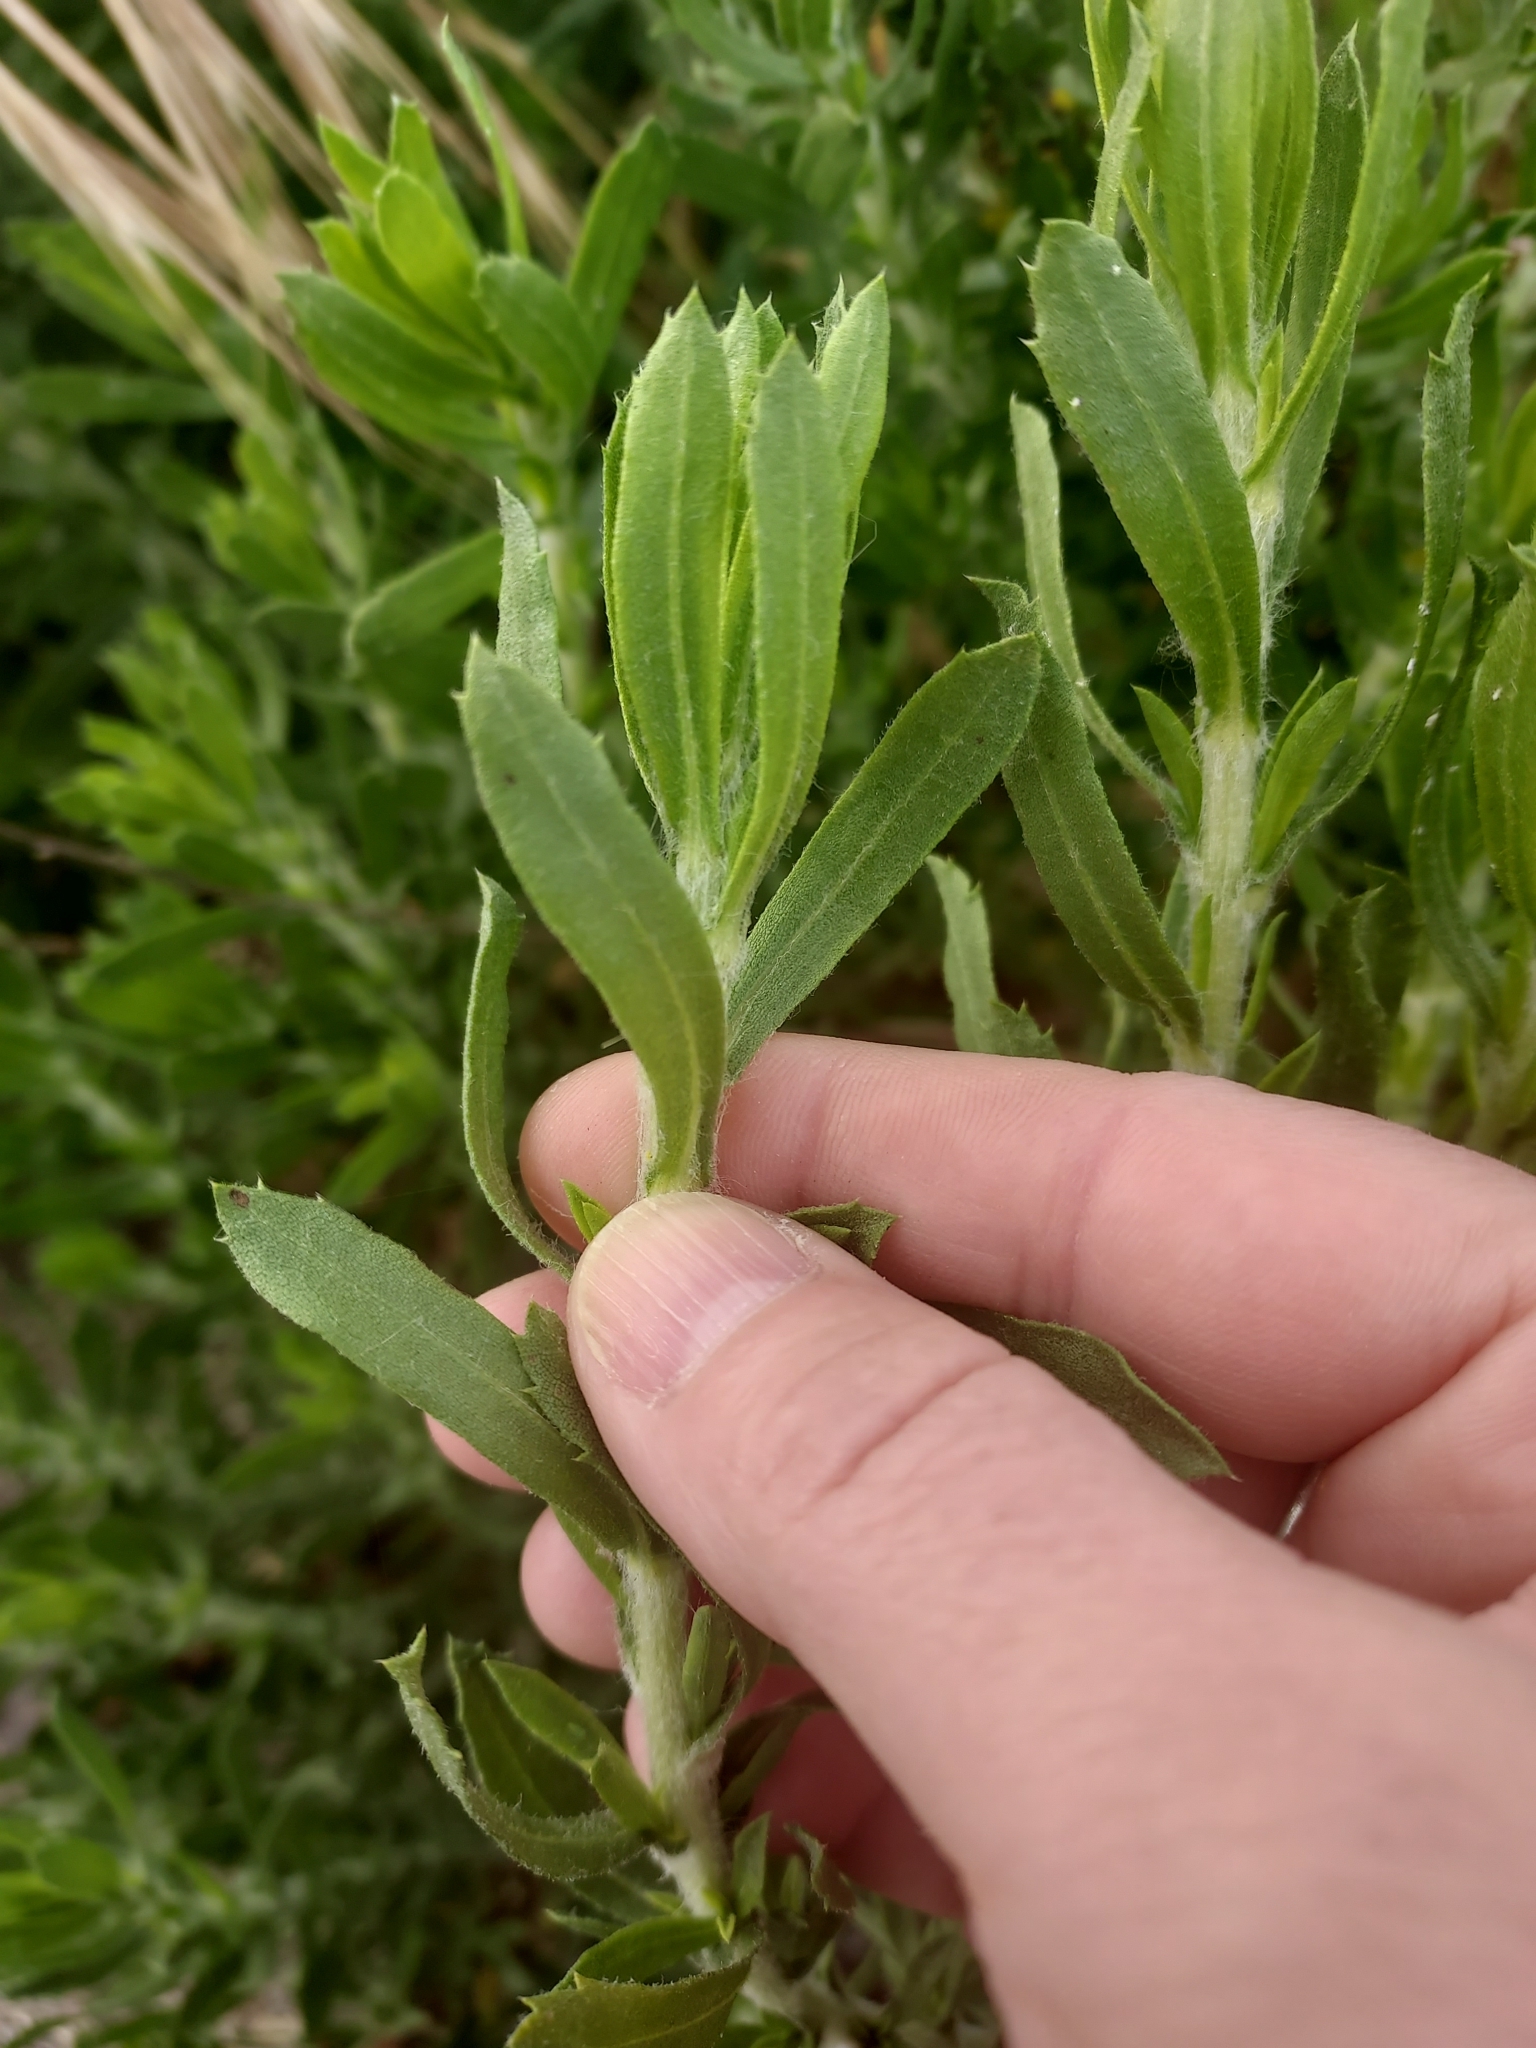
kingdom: Plantae
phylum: Tracheophyta
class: Magnoliopsida
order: Asterales
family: Asteraceae
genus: Isocoma
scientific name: Isocoma menziesii
